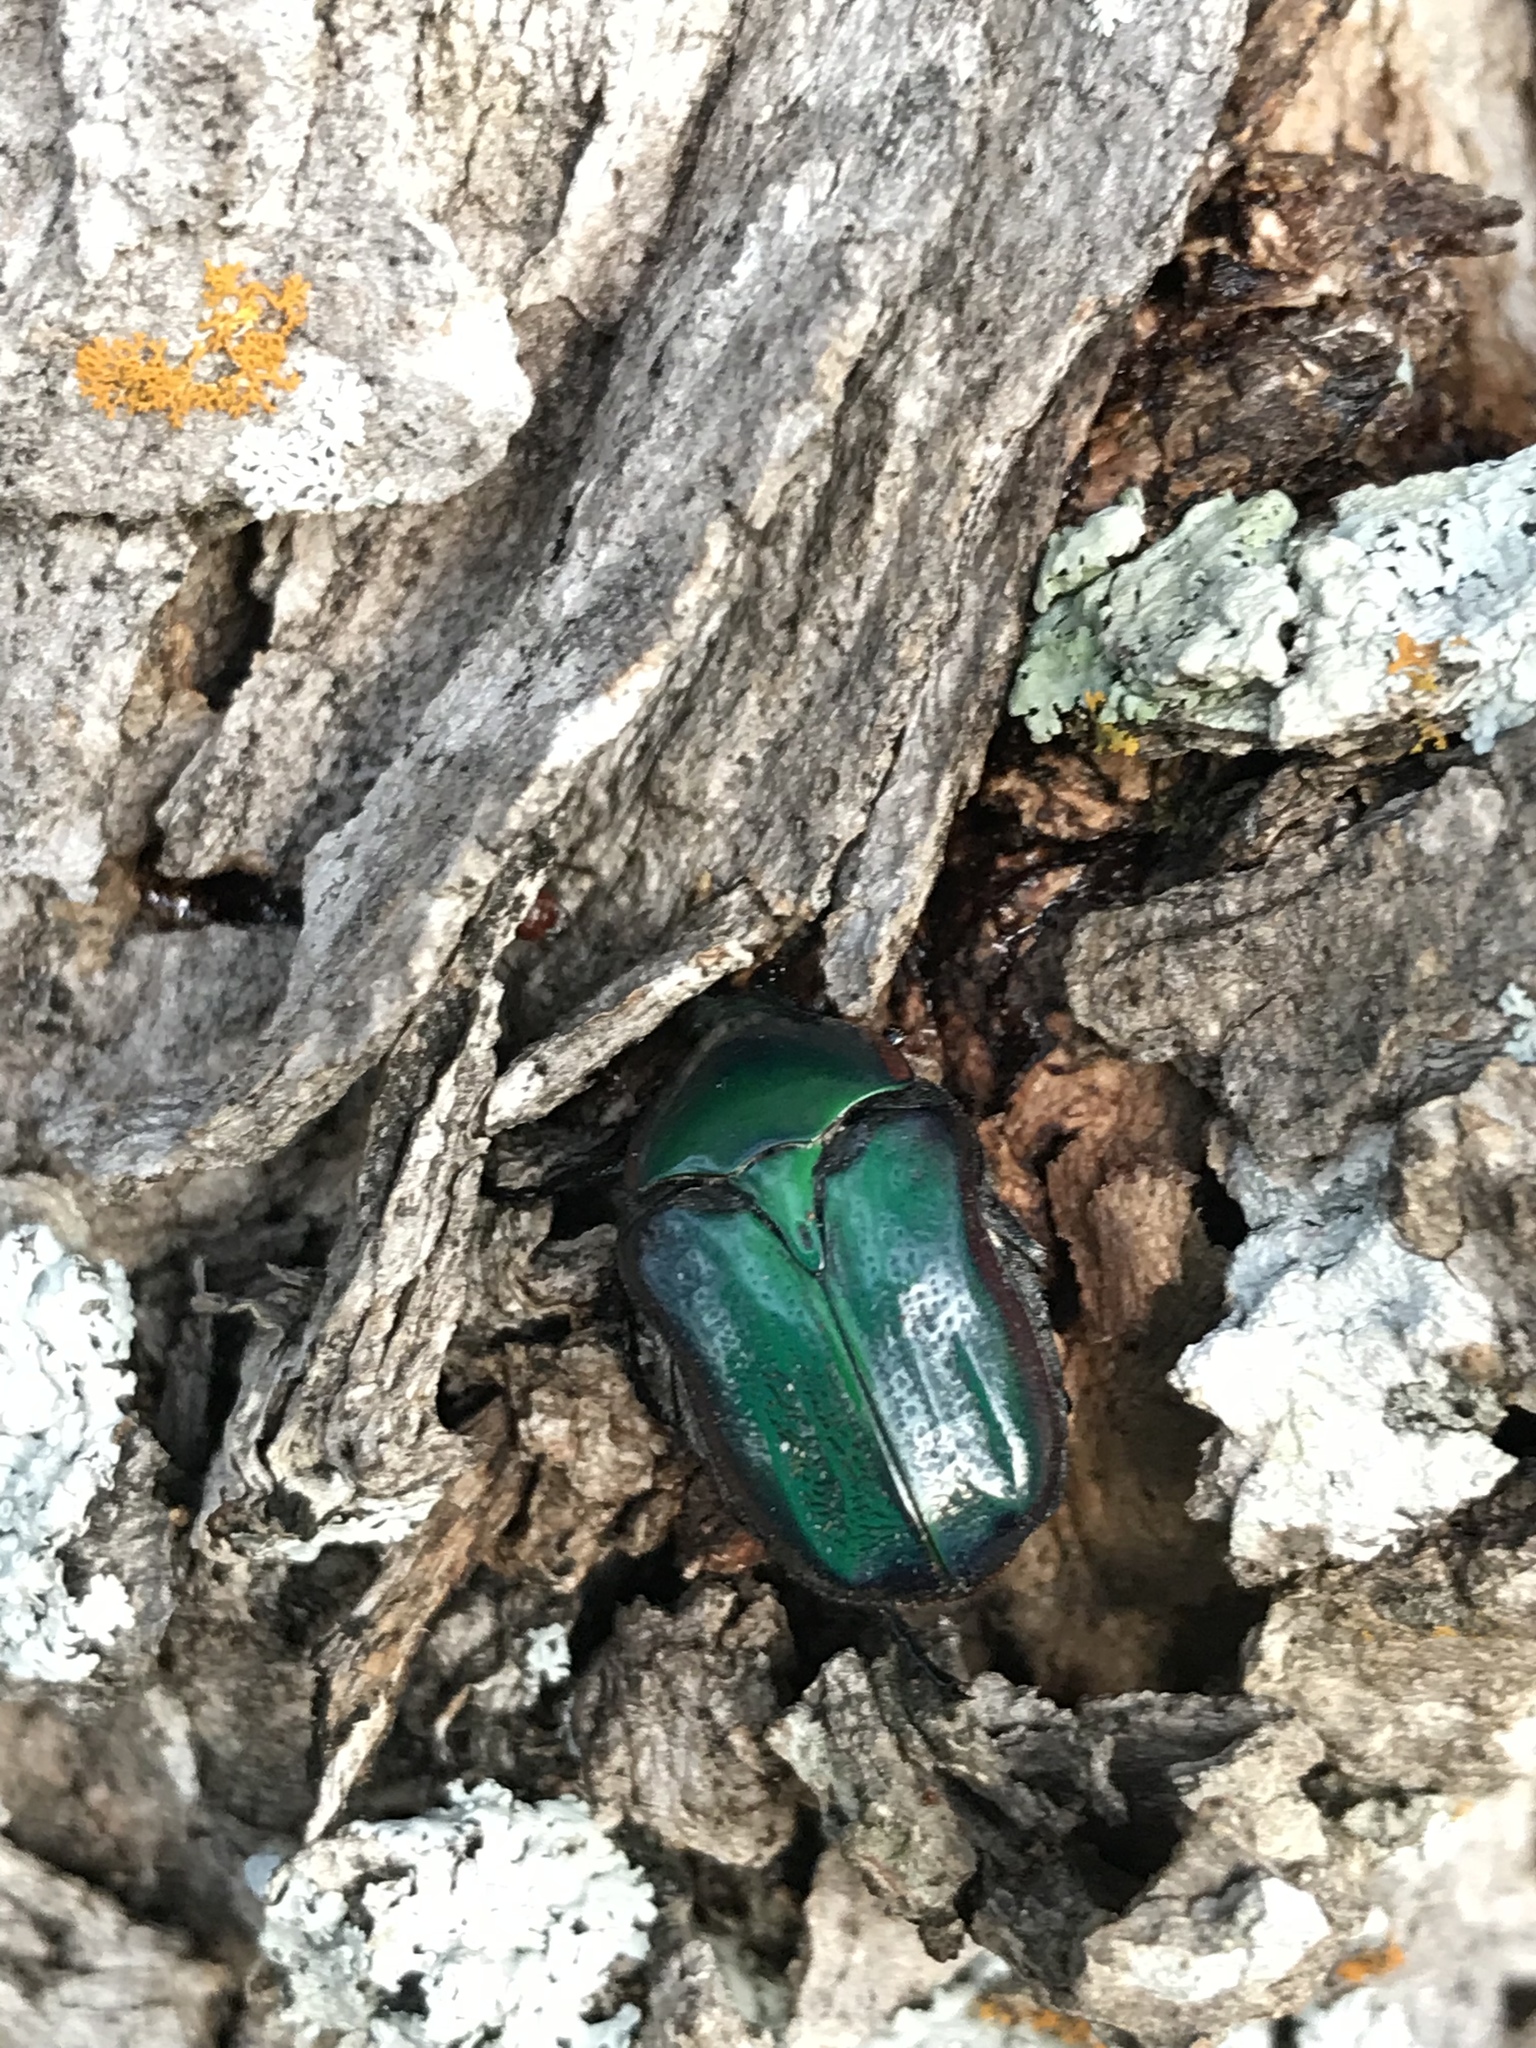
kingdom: Animalia
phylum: Arthropoda
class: Insecta
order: Coleoptera
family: Scarabaeidae
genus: Euphoria
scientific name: Euphoria fulgida
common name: Emerald euphoria
